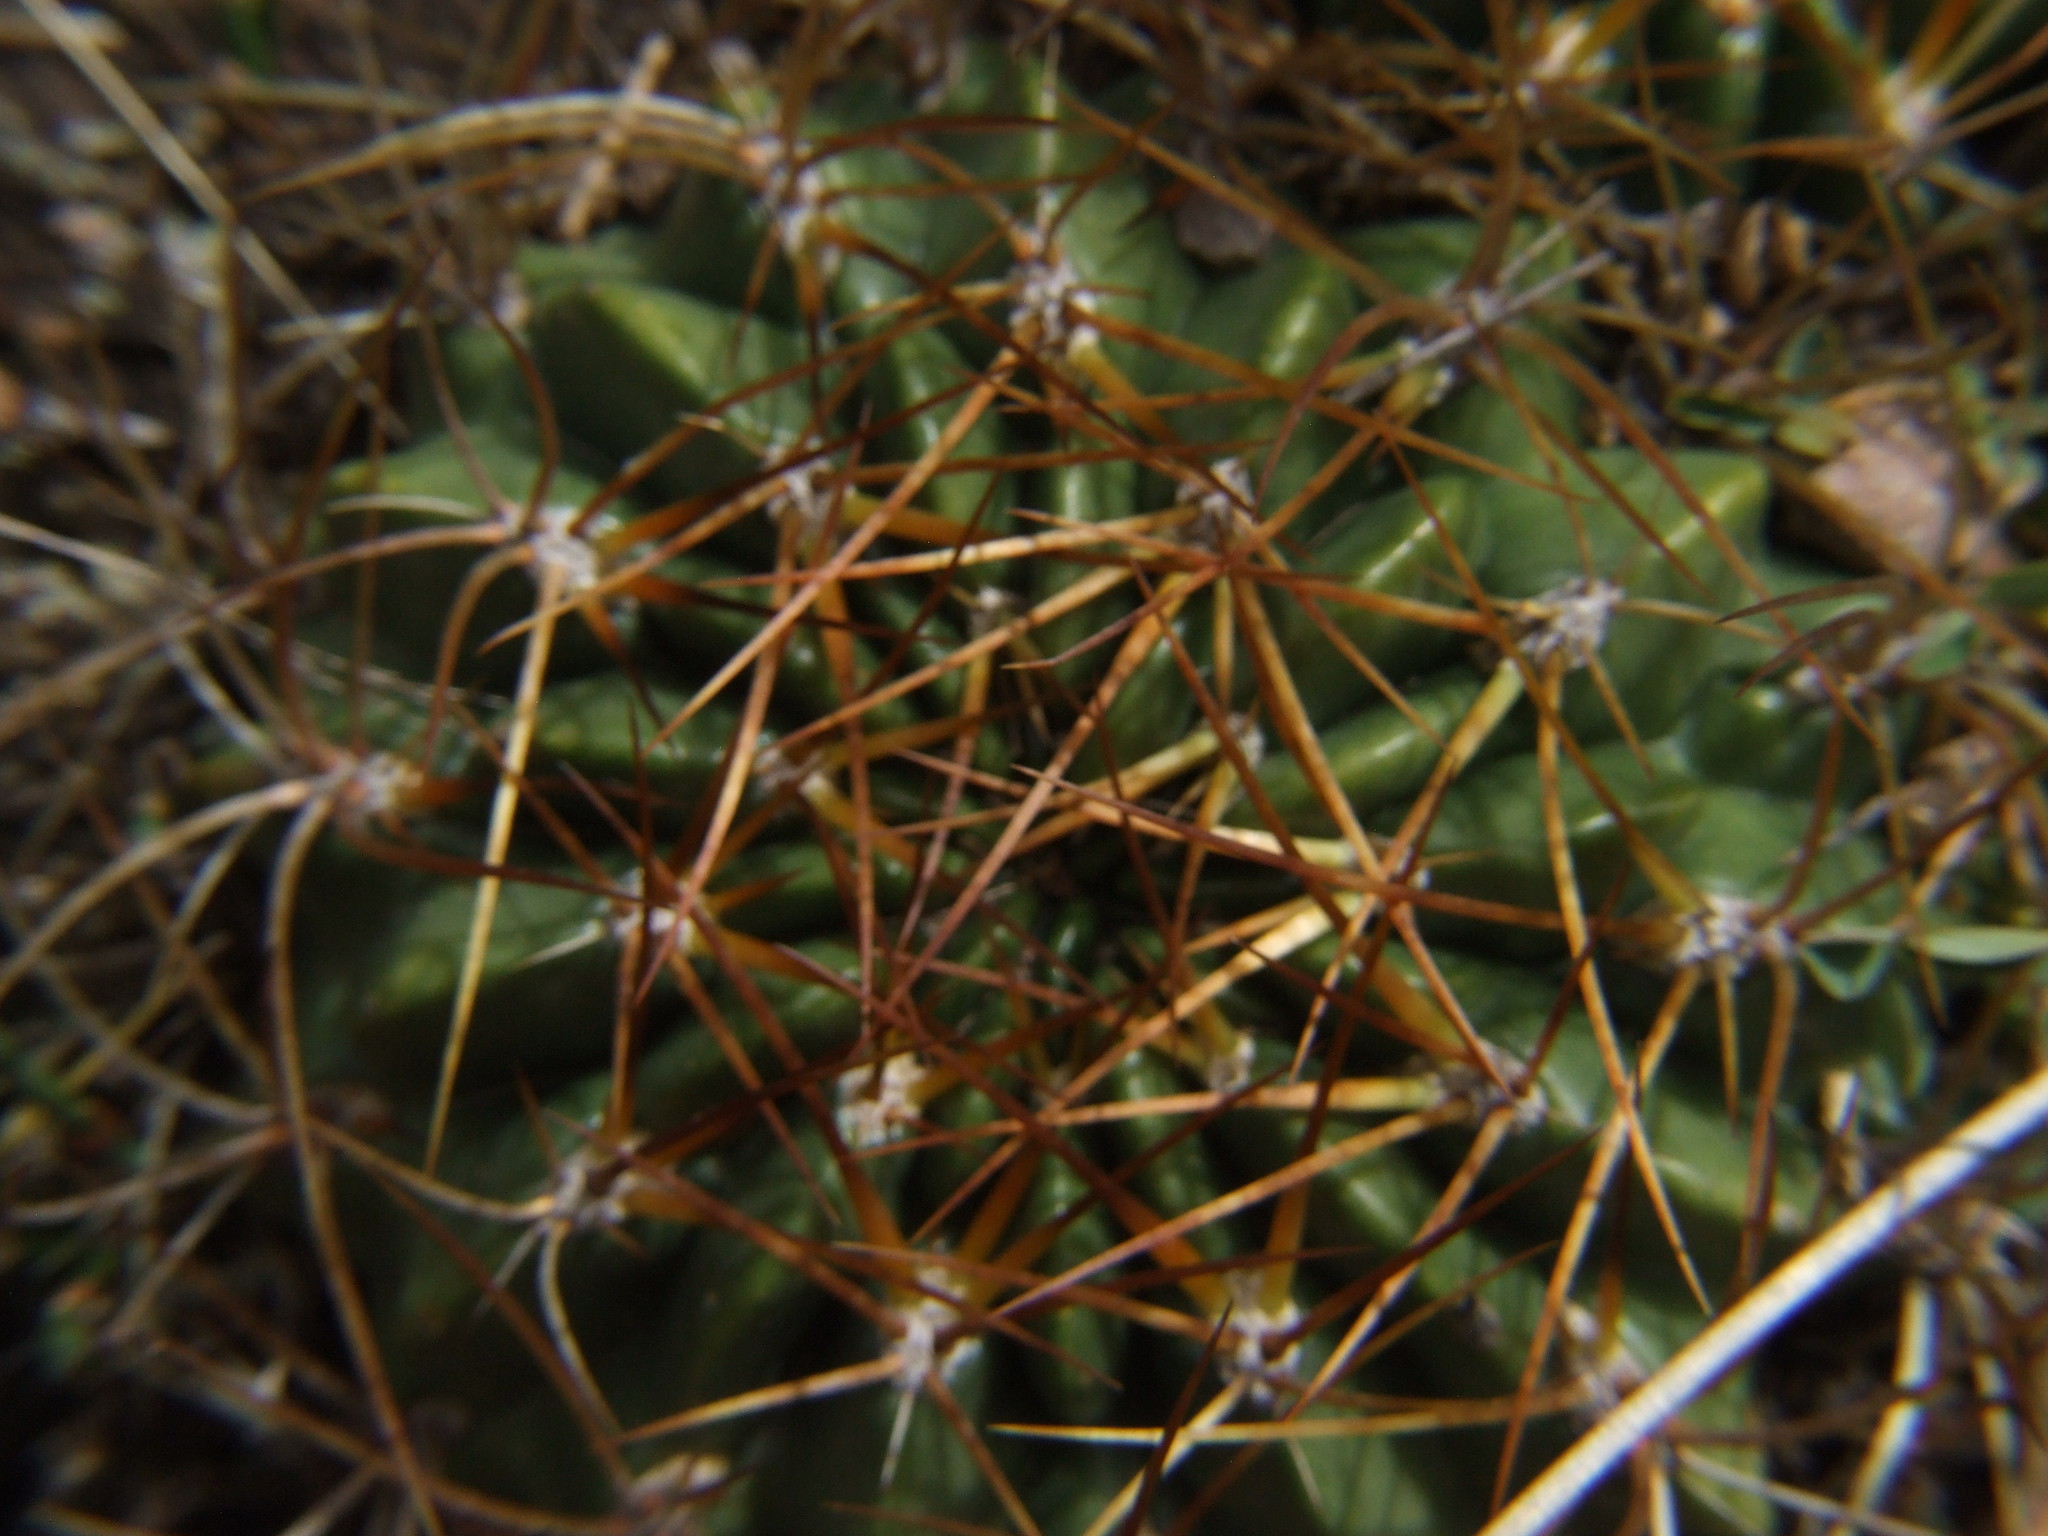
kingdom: Plantae
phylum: Tracheophyta
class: Magnoliopsida
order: Caryophyllales
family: Cactaceae
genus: Lobivia
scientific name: Lobivia maximiliana
